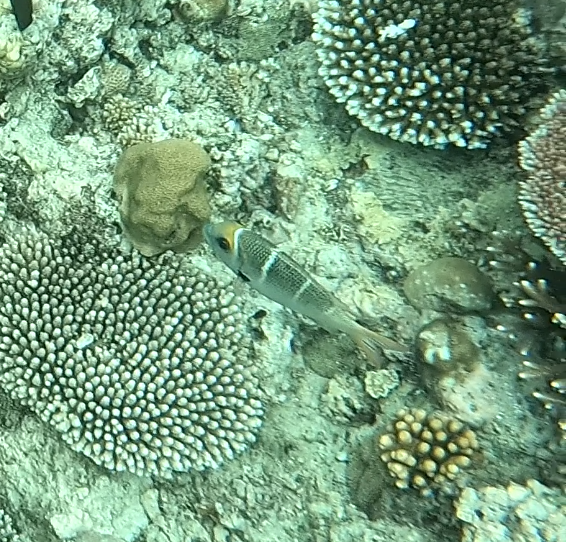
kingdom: Animalia
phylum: Chordata
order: Perciformes
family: Lethrinidae
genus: Monotaxis
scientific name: Monotaxis heterodon
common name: Redfin emperor
